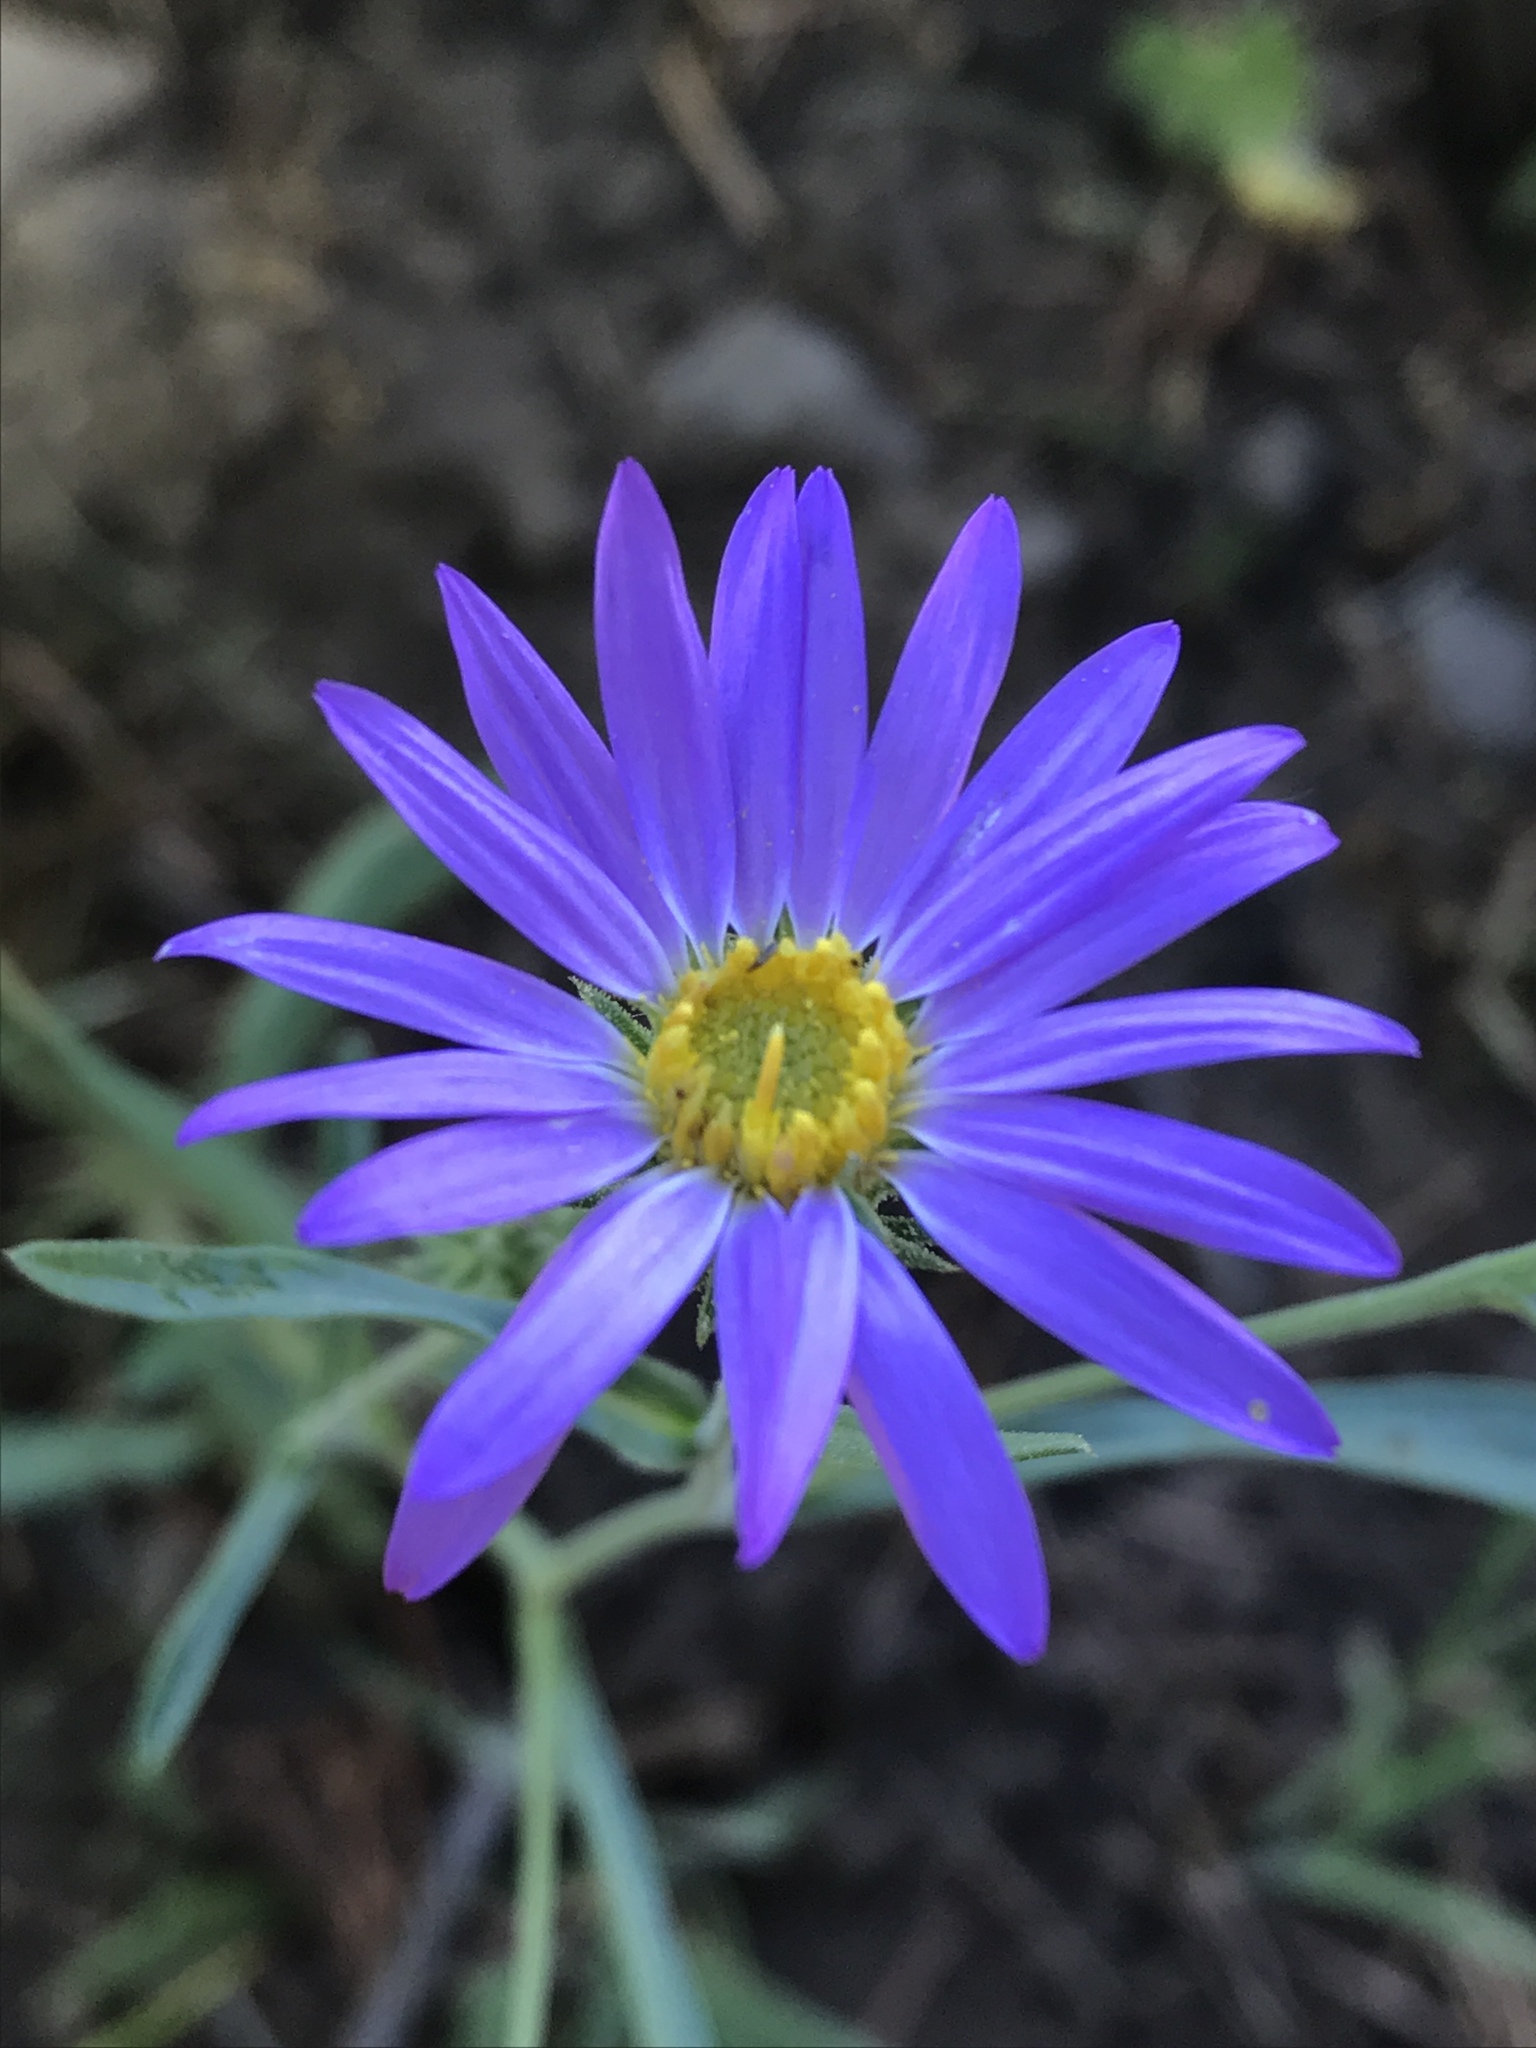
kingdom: Plantae
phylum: Tracheophyta
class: Magnoliopsida
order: Asterales
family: Asteraceae
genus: Dieteria
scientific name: Dieteria canescens
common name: Hoary-aster
